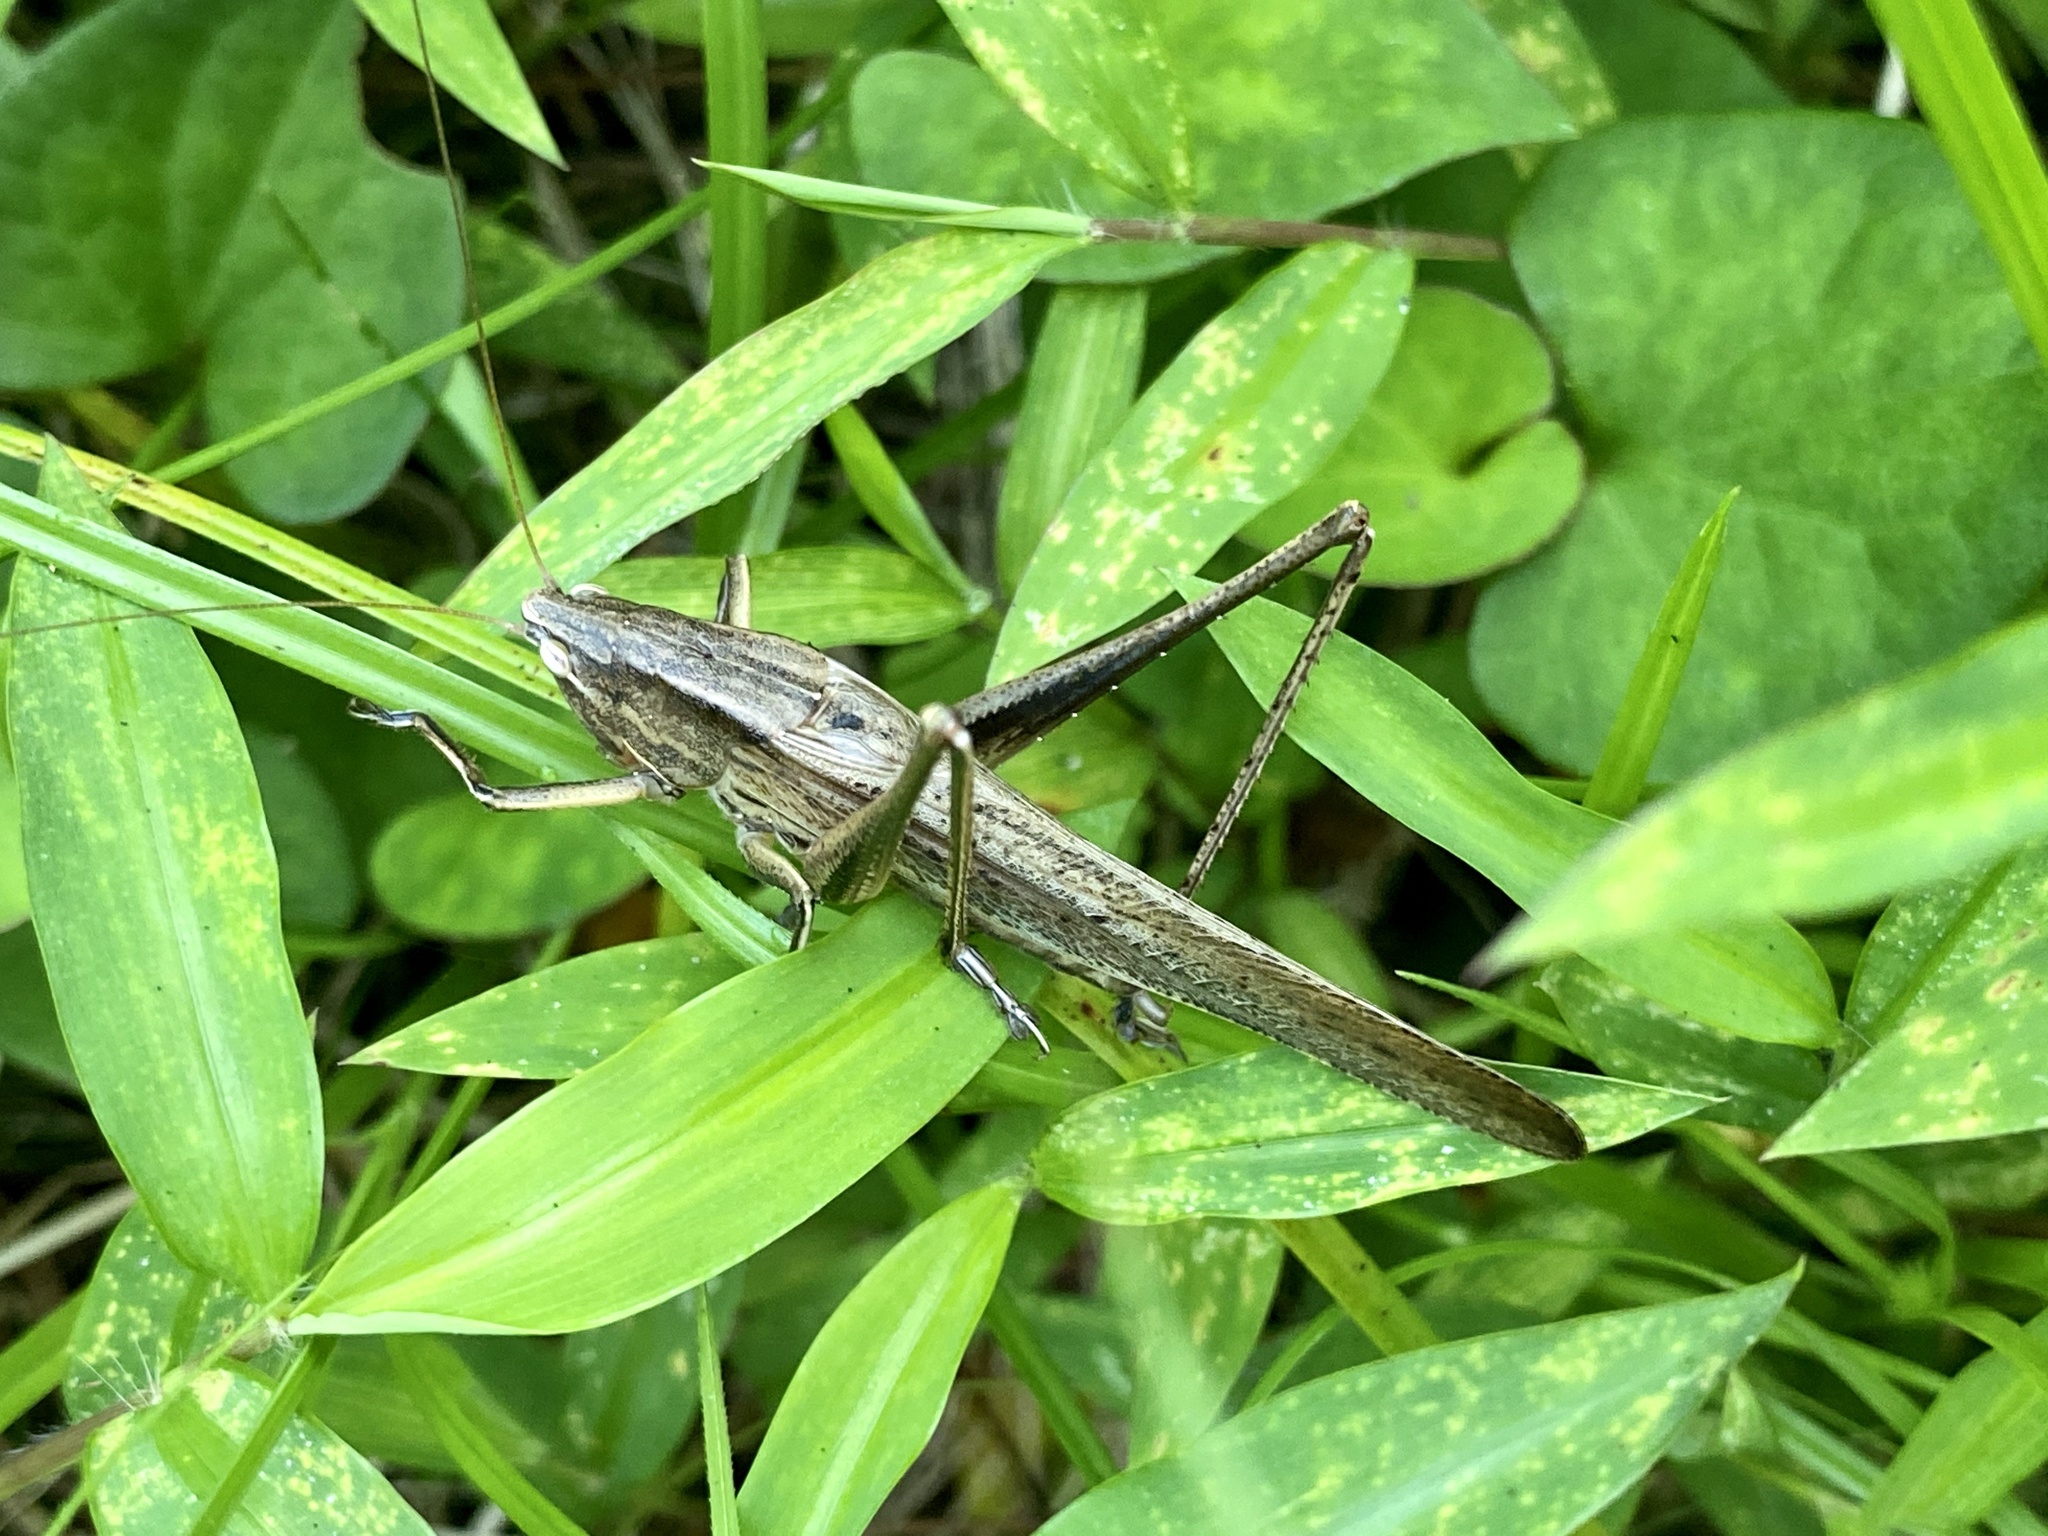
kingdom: Animalia
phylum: Arthropoda
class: Insecta
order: Orthoptera
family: Tettigoniidae
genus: Ruspolia
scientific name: Ruspolia lineosa
